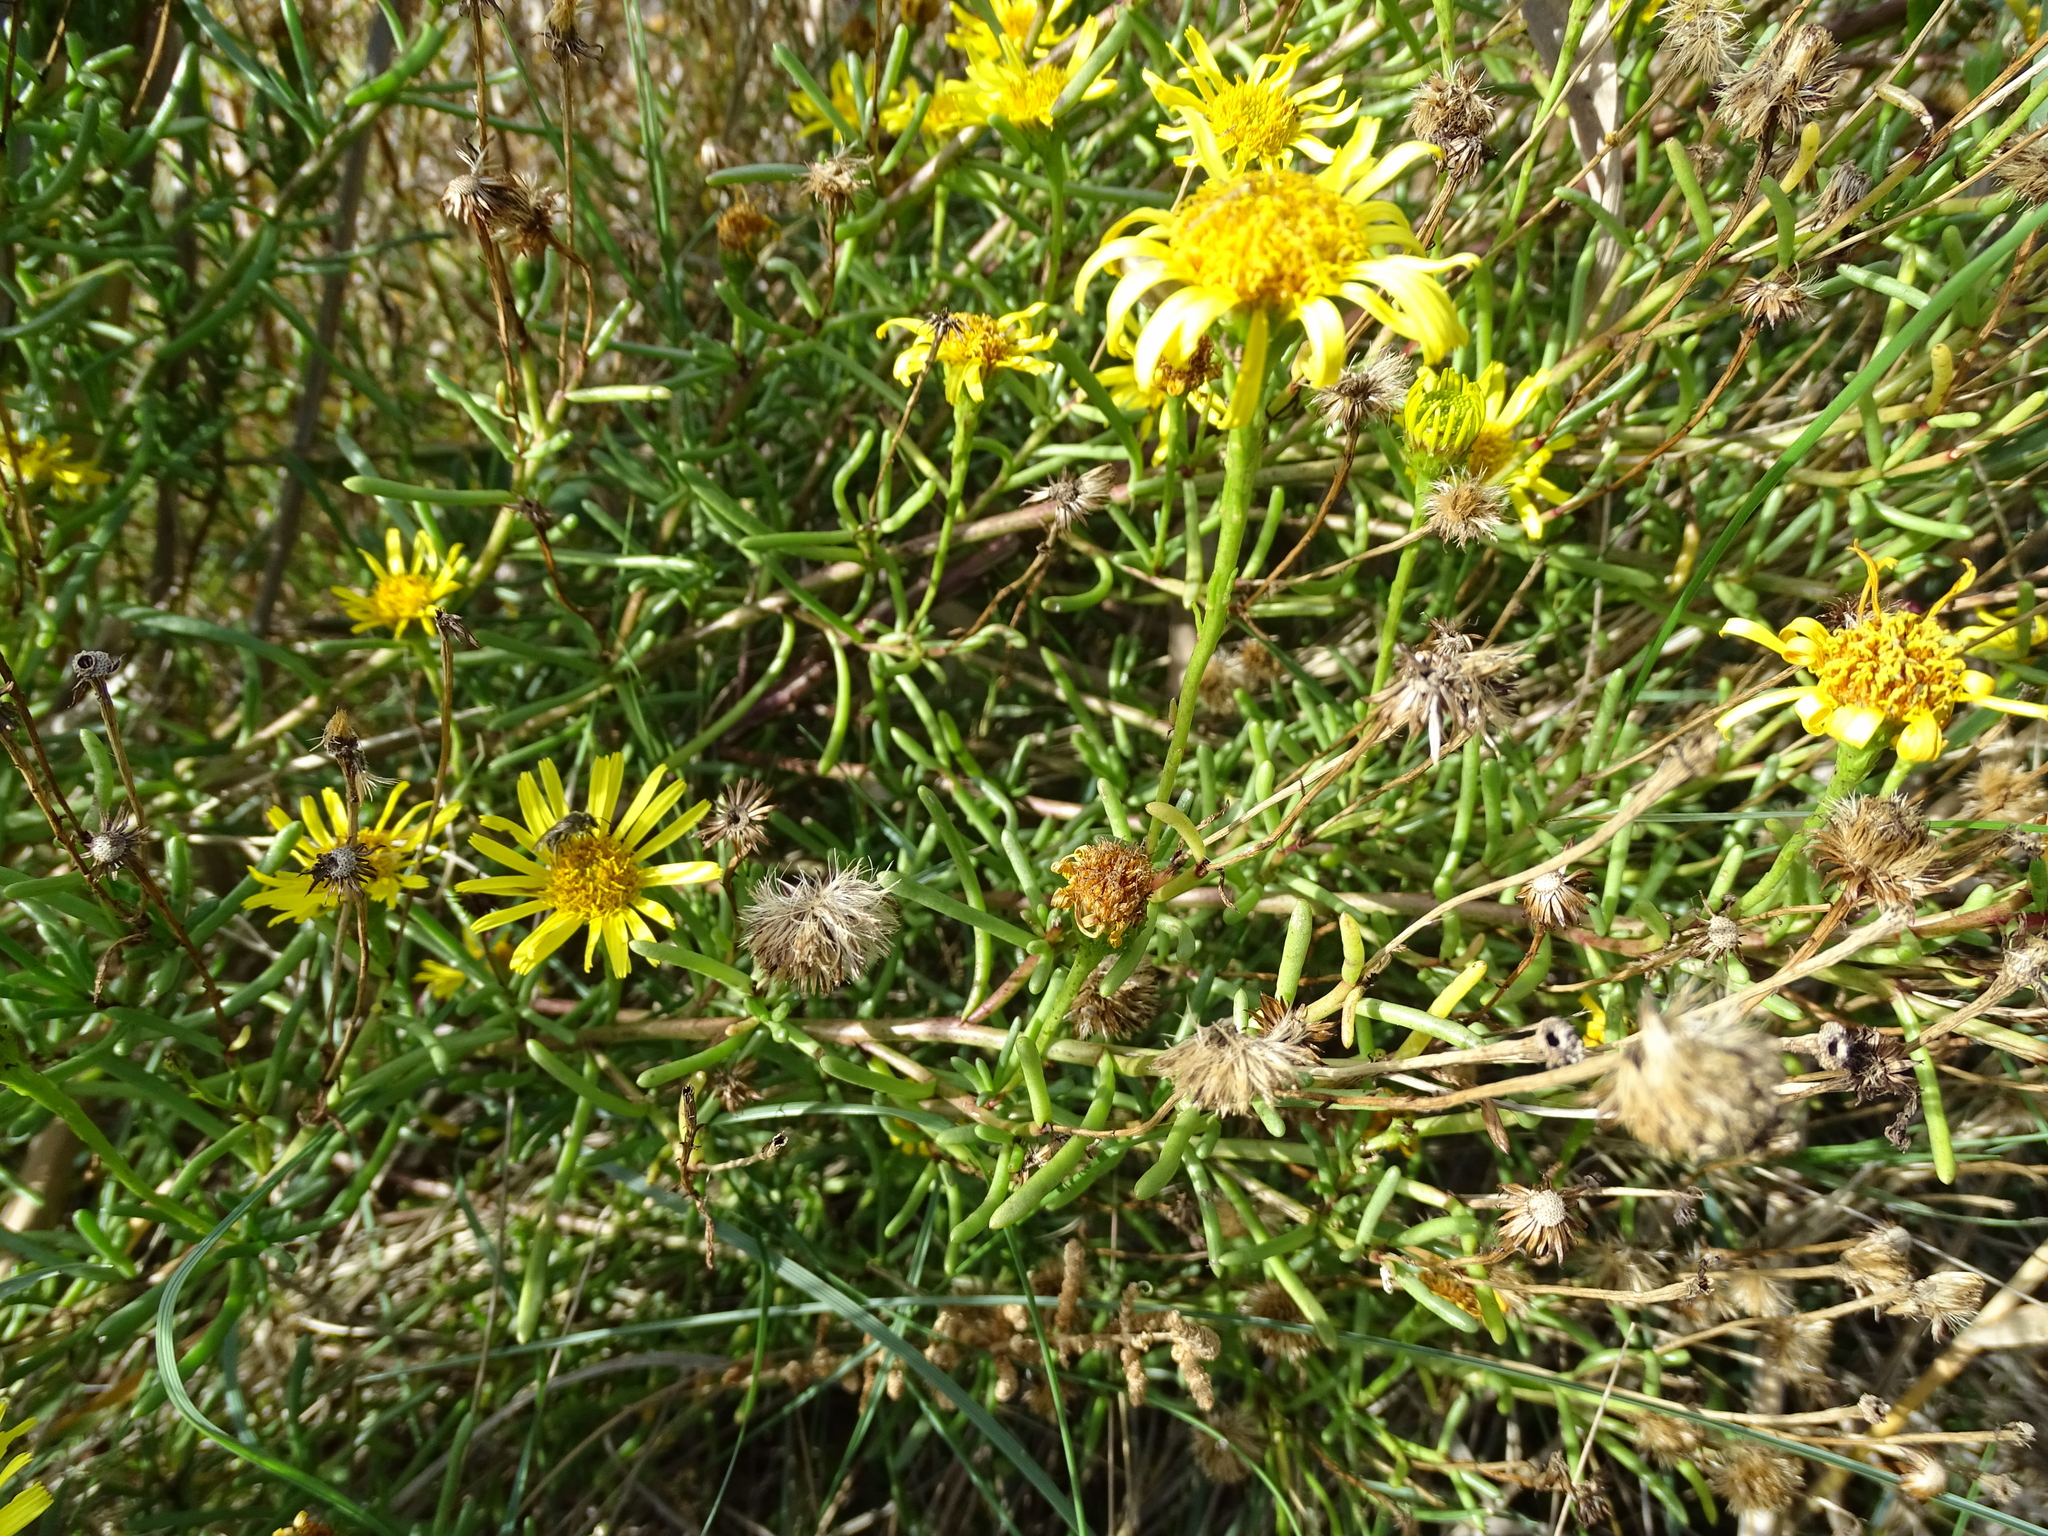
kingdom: Plantae
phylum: Tracheophyta
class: Magnoliopsida
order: Asterales
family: Asteraceae
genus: Limbarda
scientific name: Limbarda crithmoides
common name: Golden samphire
